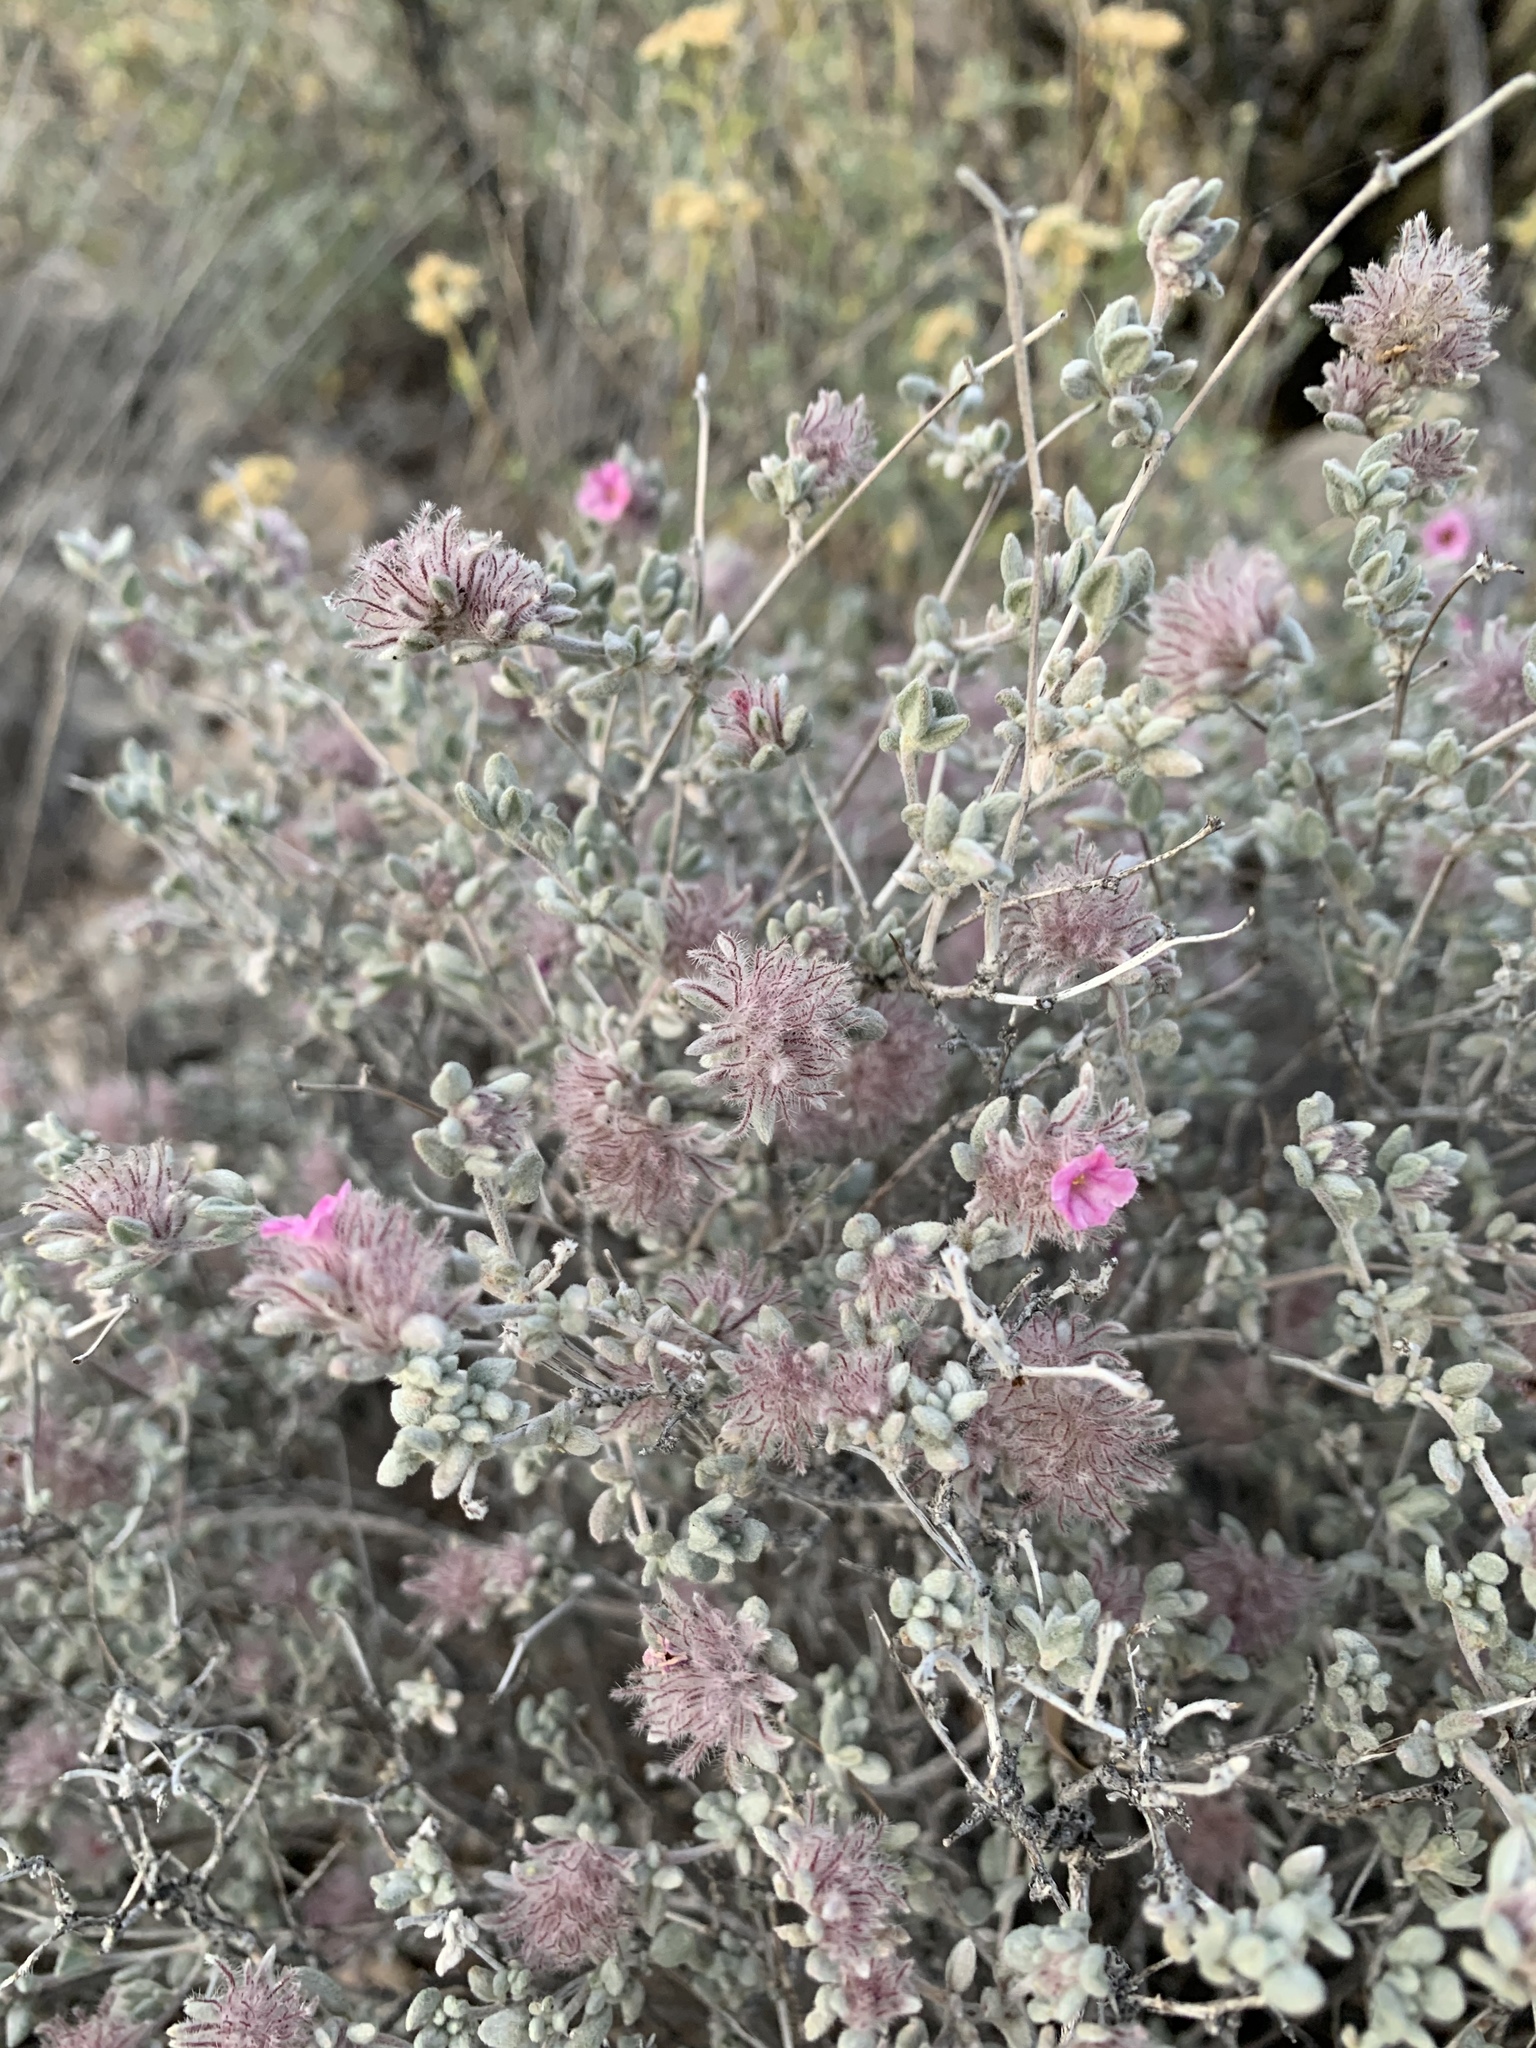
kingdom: Plantae
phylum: Tracheophyta
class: Magnoliopsida
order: Boraginales
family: Ehretiaceae
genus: Tiquilia
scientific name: Tiquilia greggii
